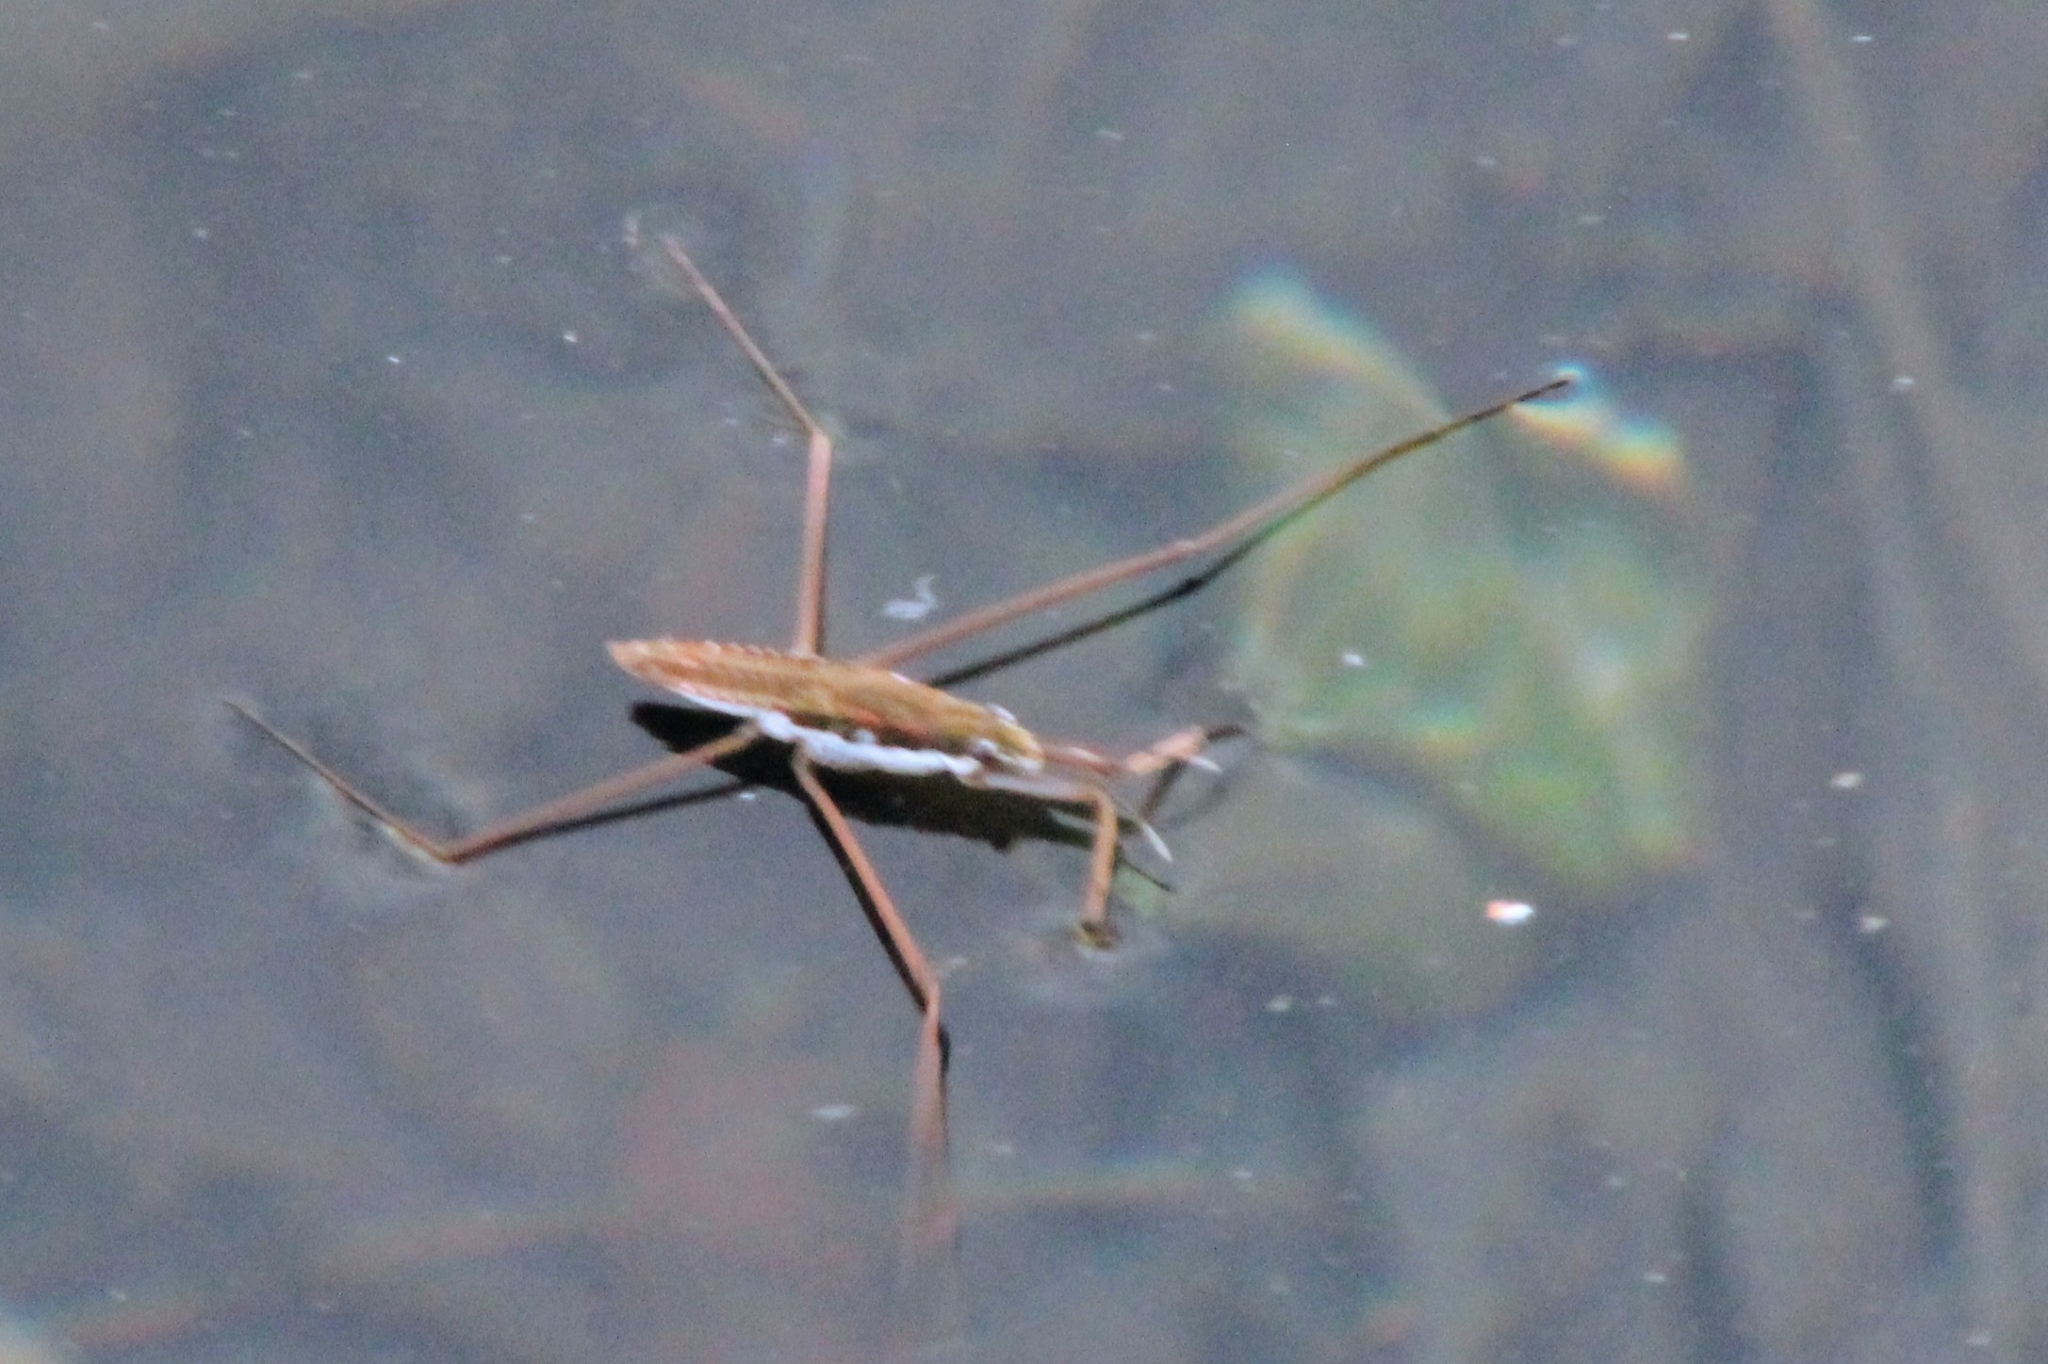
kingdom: Animalia
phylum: Arthropoda
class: Insecta
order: Hemiptera
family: Gerridae
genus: Aquarius
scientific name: Aquarius remigis
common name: Common water strider
